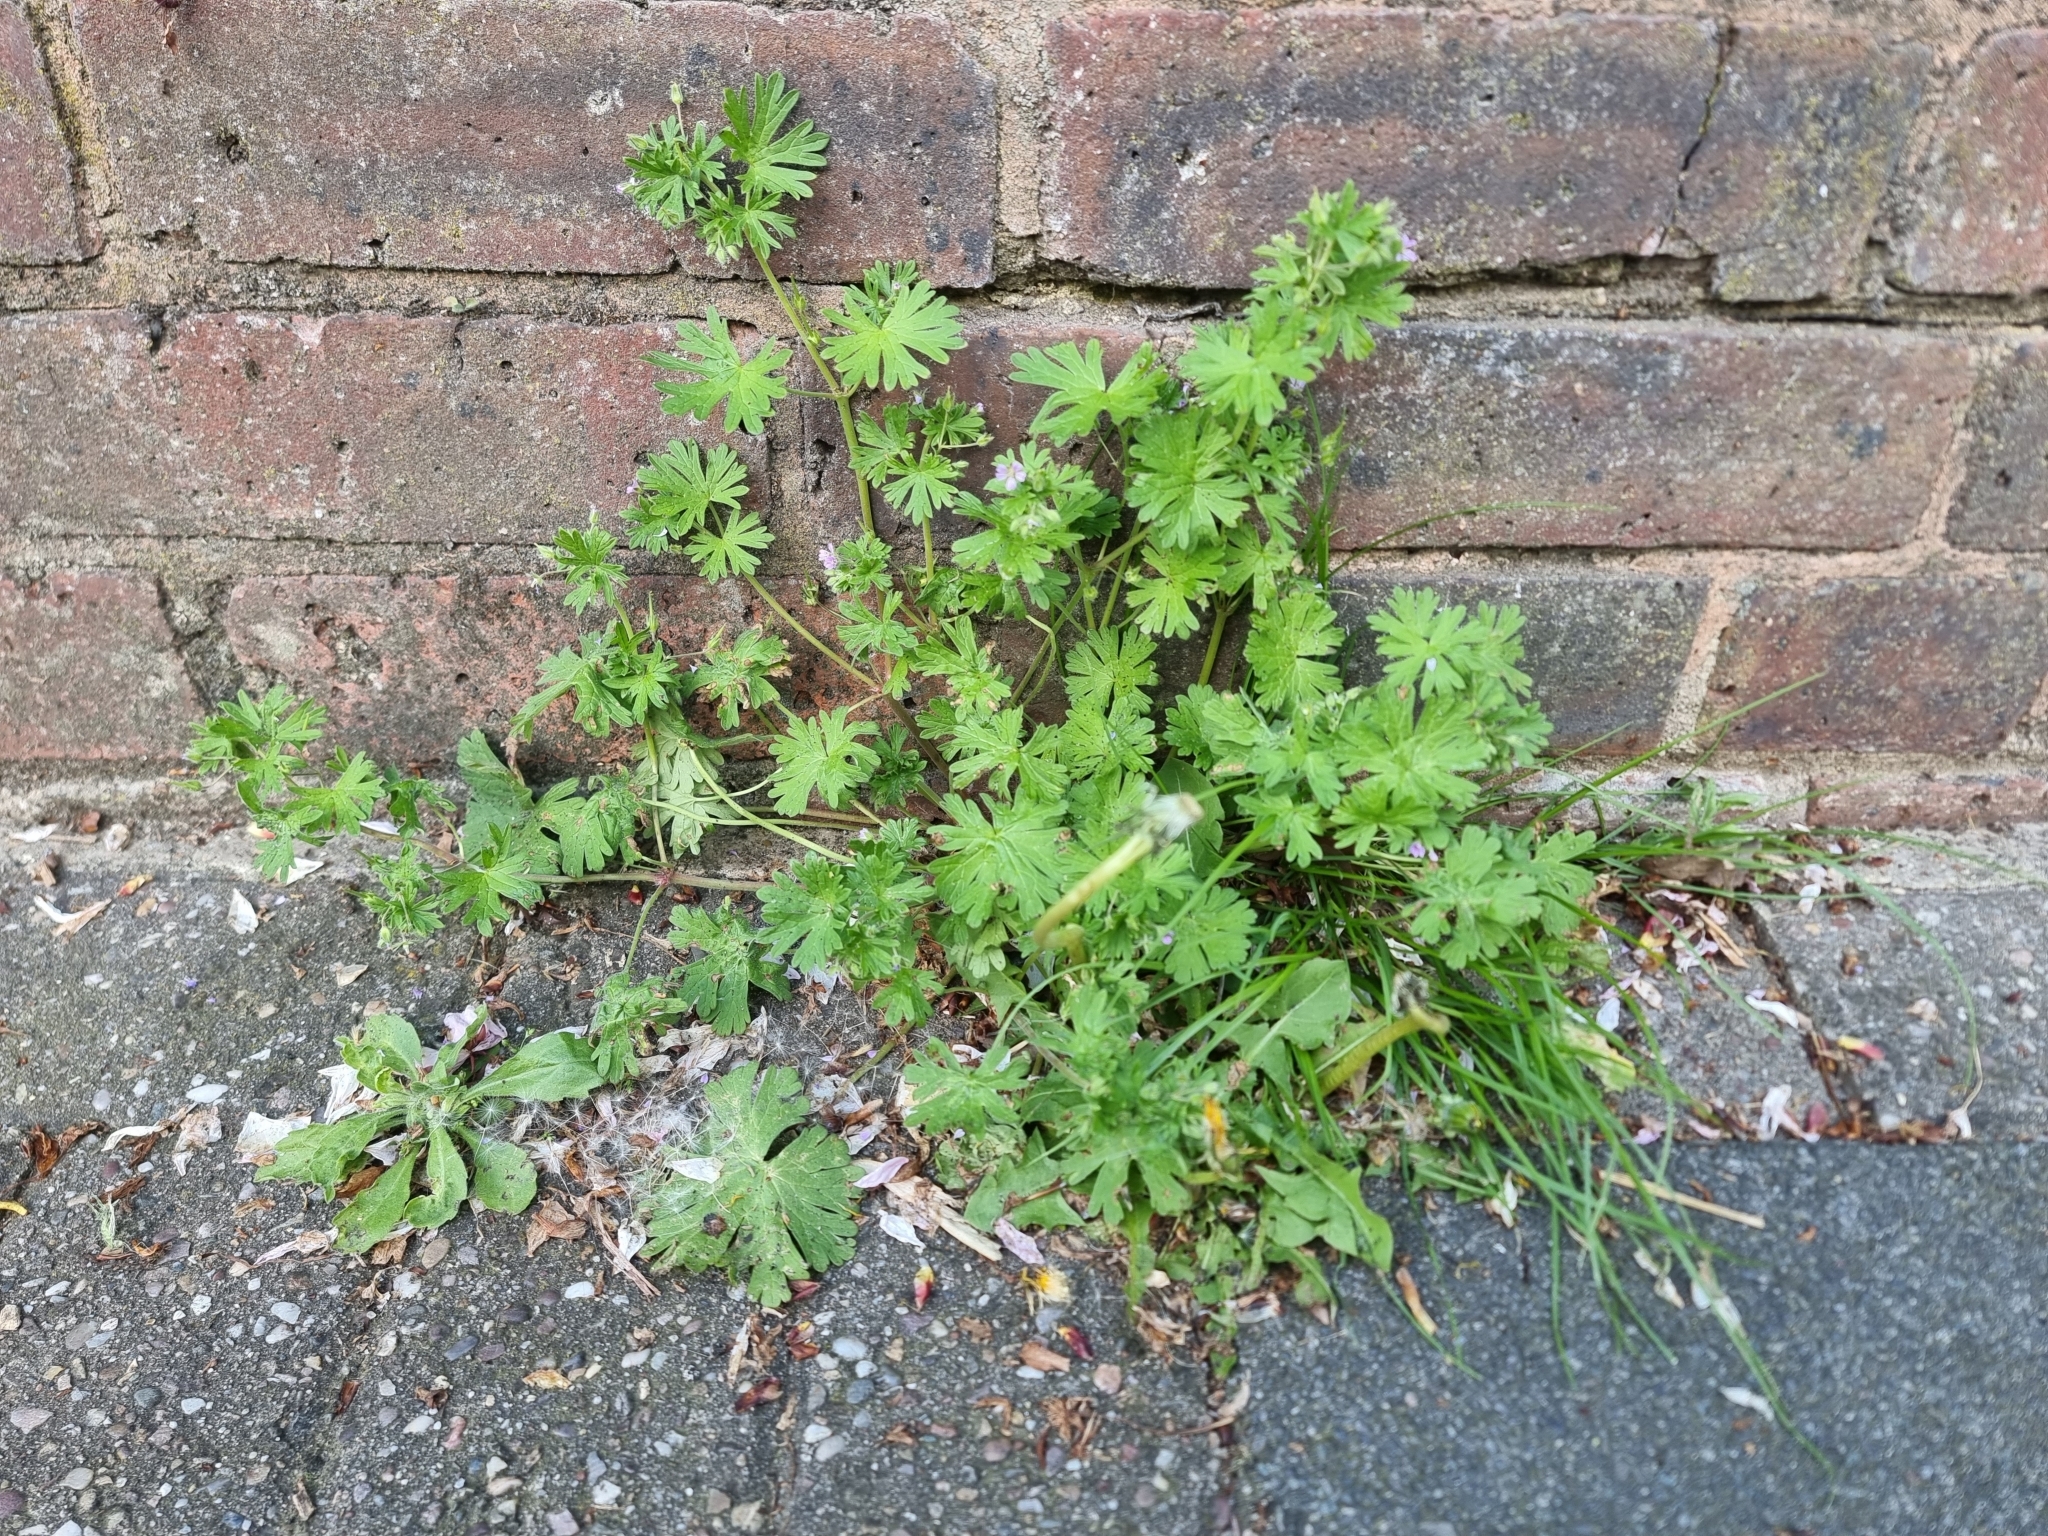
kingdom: Plantae
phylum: Tracheophyta
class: Magnoliopsida
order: Geraniales
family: Geraniaceae
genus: Geranium
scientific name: Geranium pusillum
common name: Small geranium
